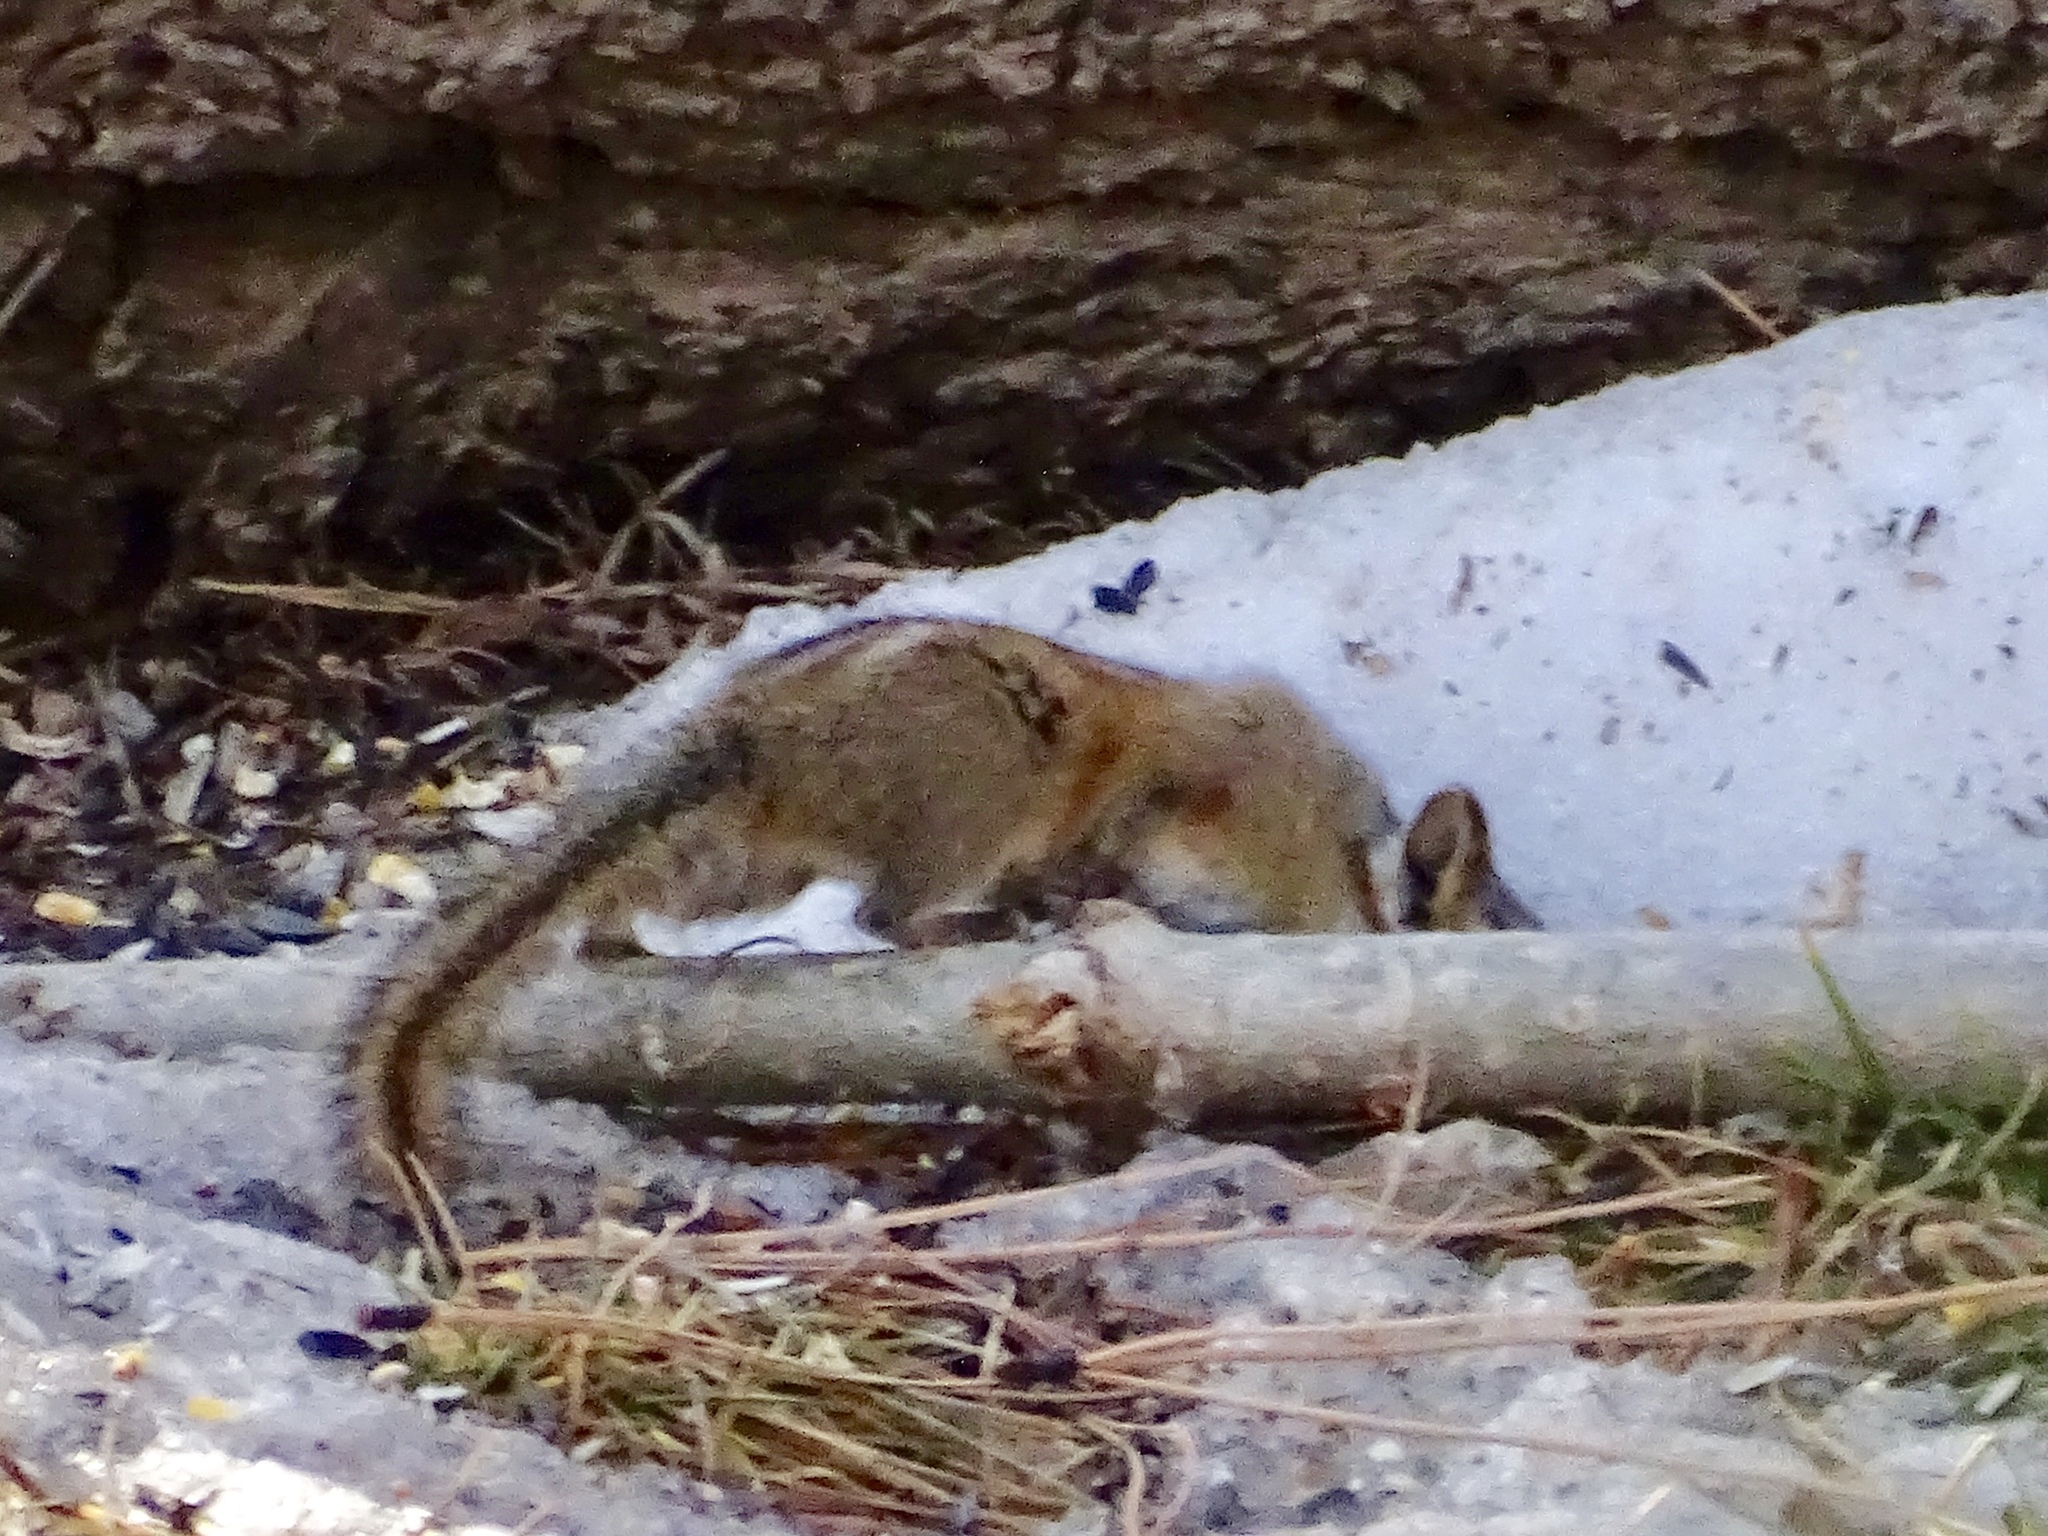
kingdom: Animalia
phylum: Chordata
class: Mammalia
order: Rodentia
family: Sciuridae
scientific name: Sciuridae
